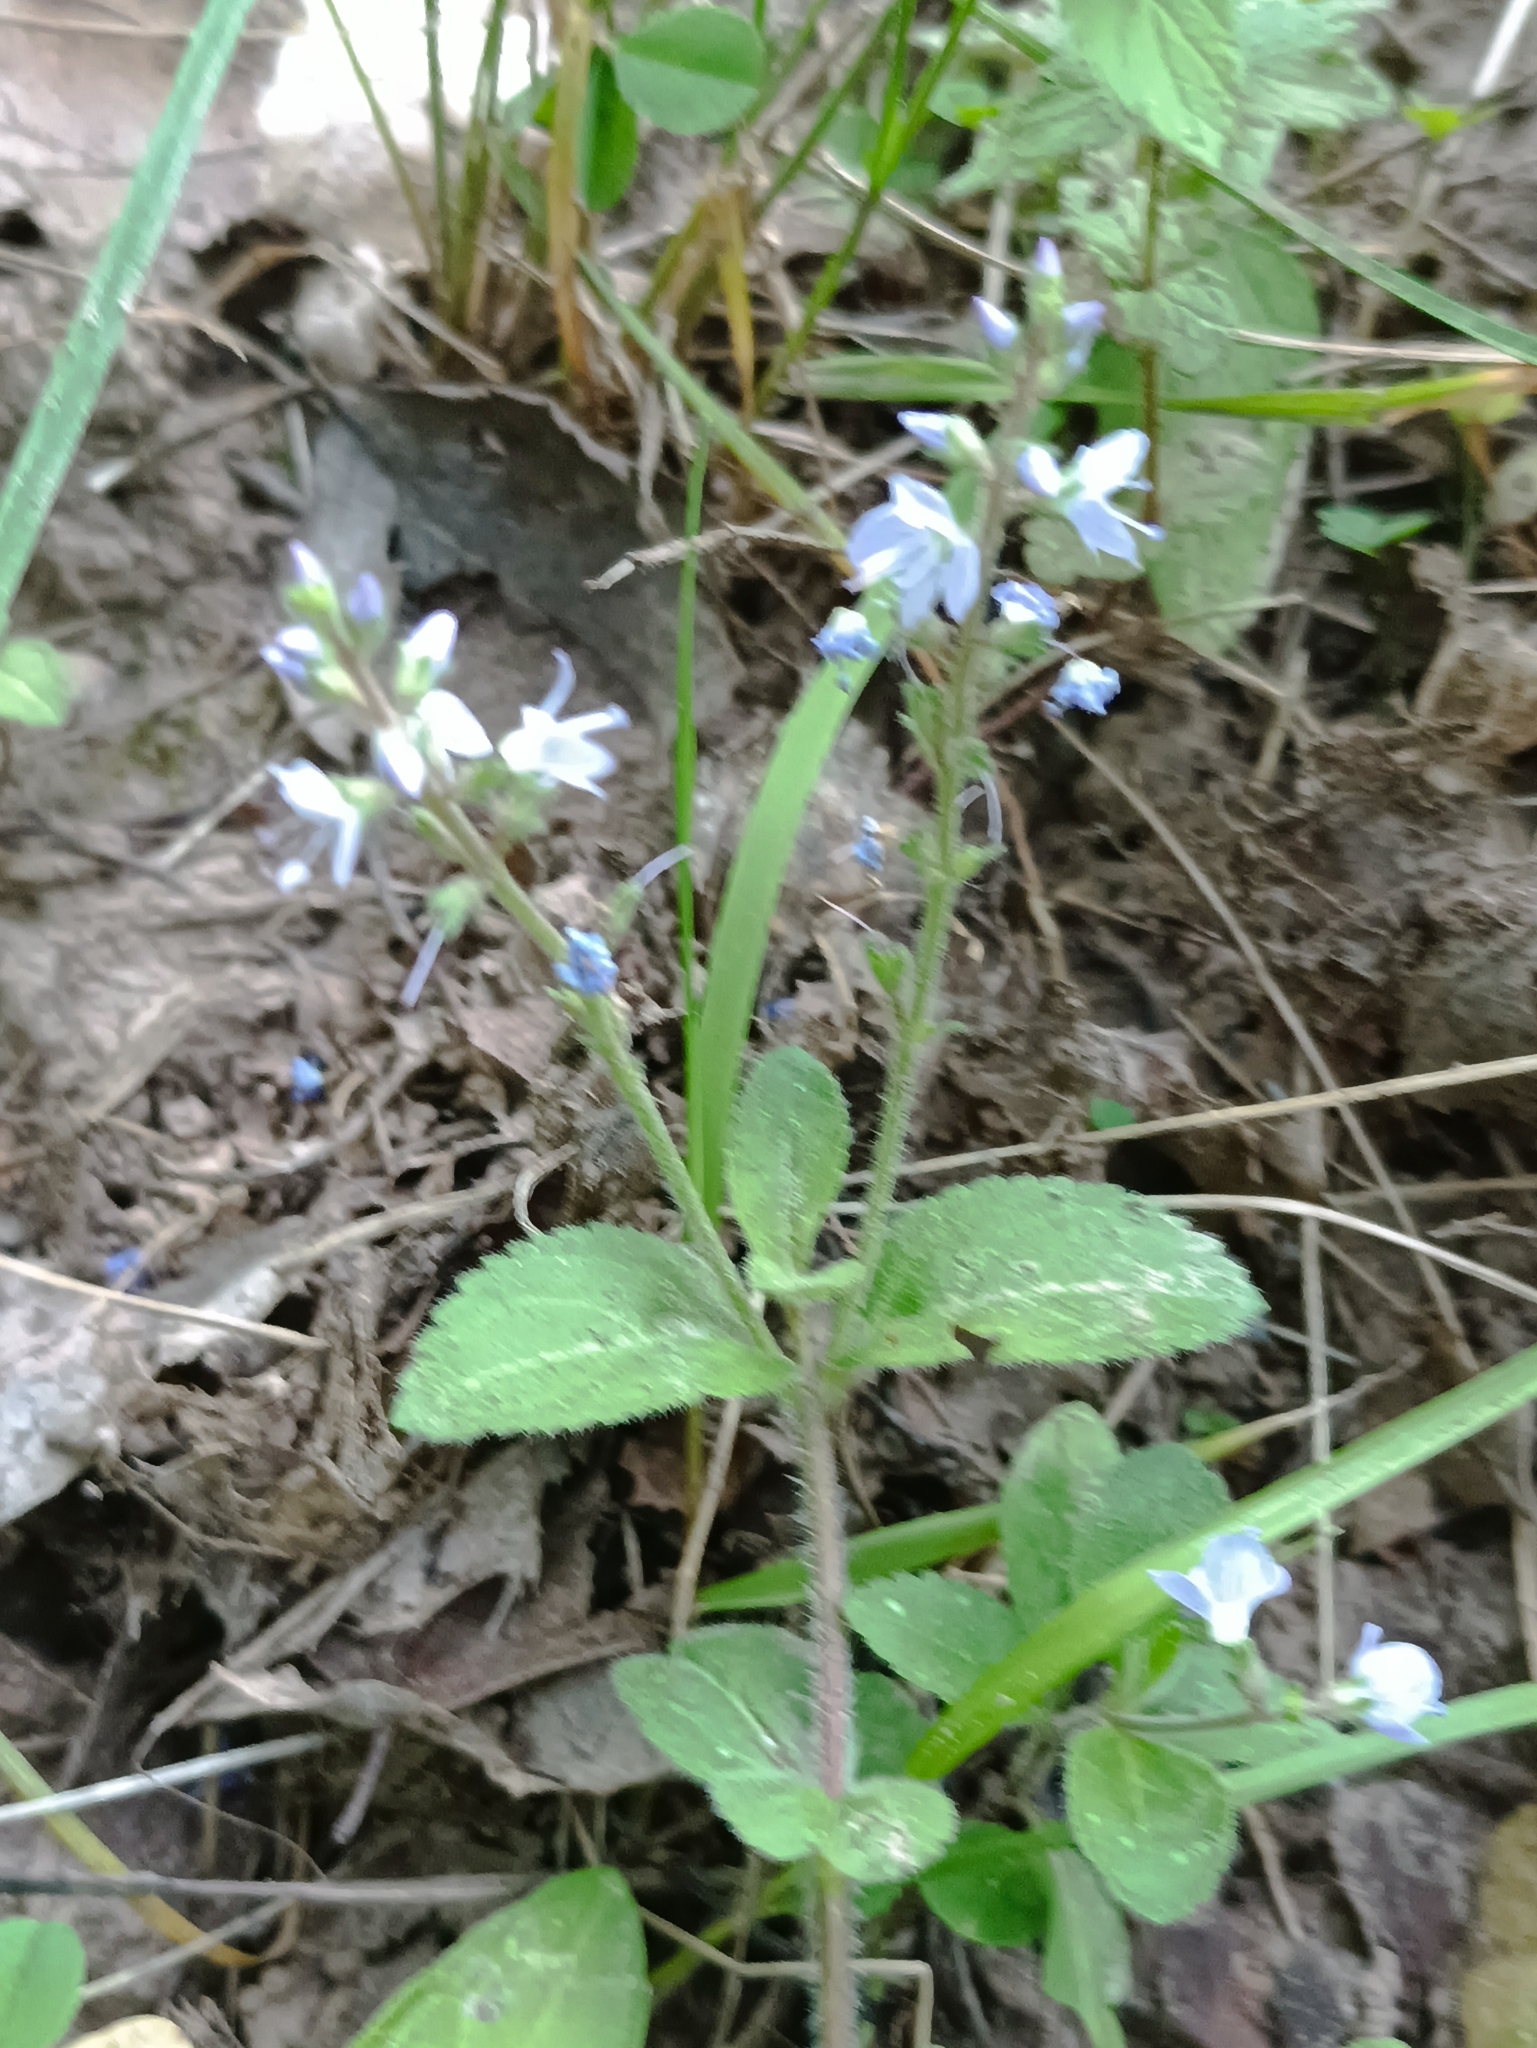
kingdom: Plantae
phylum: Tracheophyta
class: Magnoliopsida
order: Lamiales
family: Plantaginaceae
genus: Veronica
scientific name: Veronica officinalis
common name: Common speedwell
